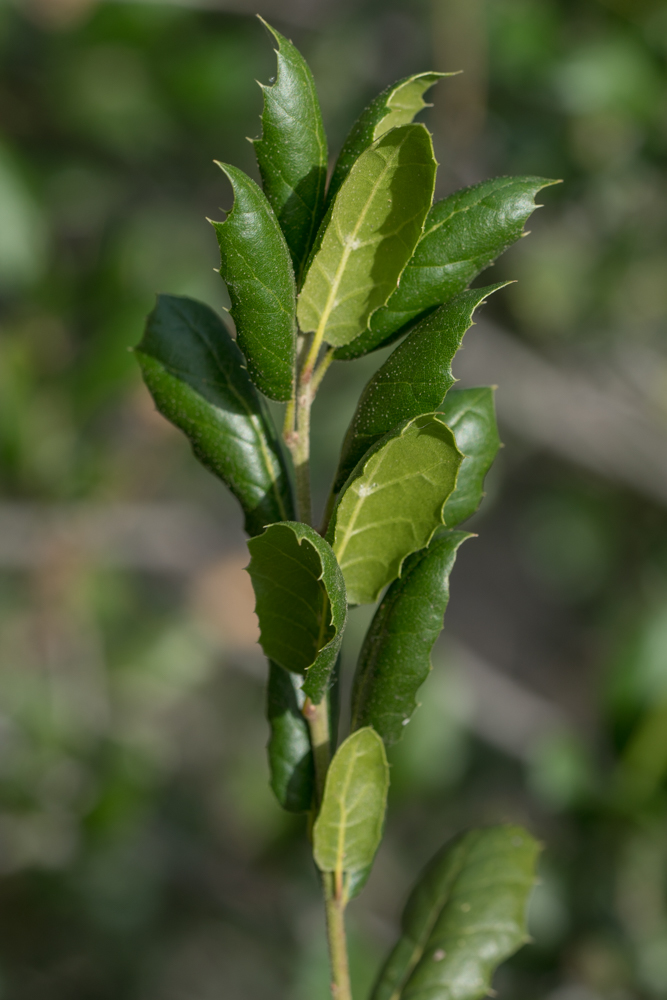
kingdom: Plantae
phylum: Tracheophyta
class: Magnoliopsida
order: Fagales
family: Fagaceae
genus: Quercus
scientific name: Quercus agrifolia
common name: California live oak
